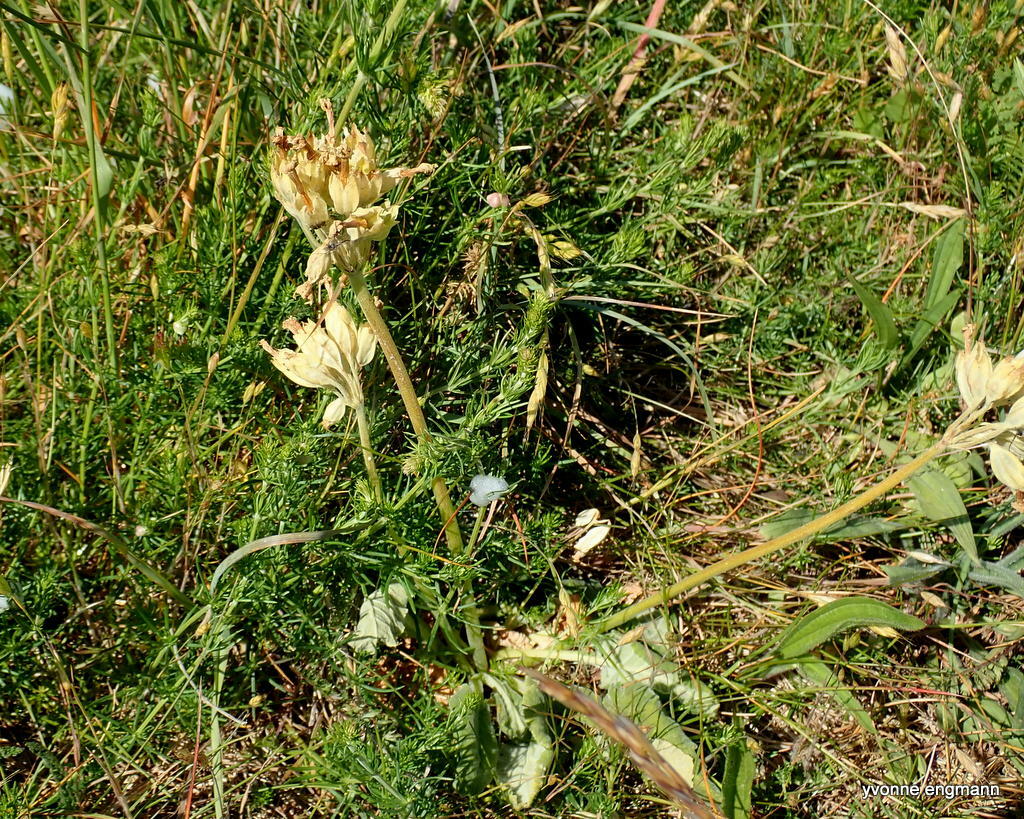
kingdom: Plantae
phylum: Tracheophyta
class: Magnoliopsida
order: Ericales
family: Primulaceae
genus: Primula
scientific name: Primula veris
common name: Cowslip
